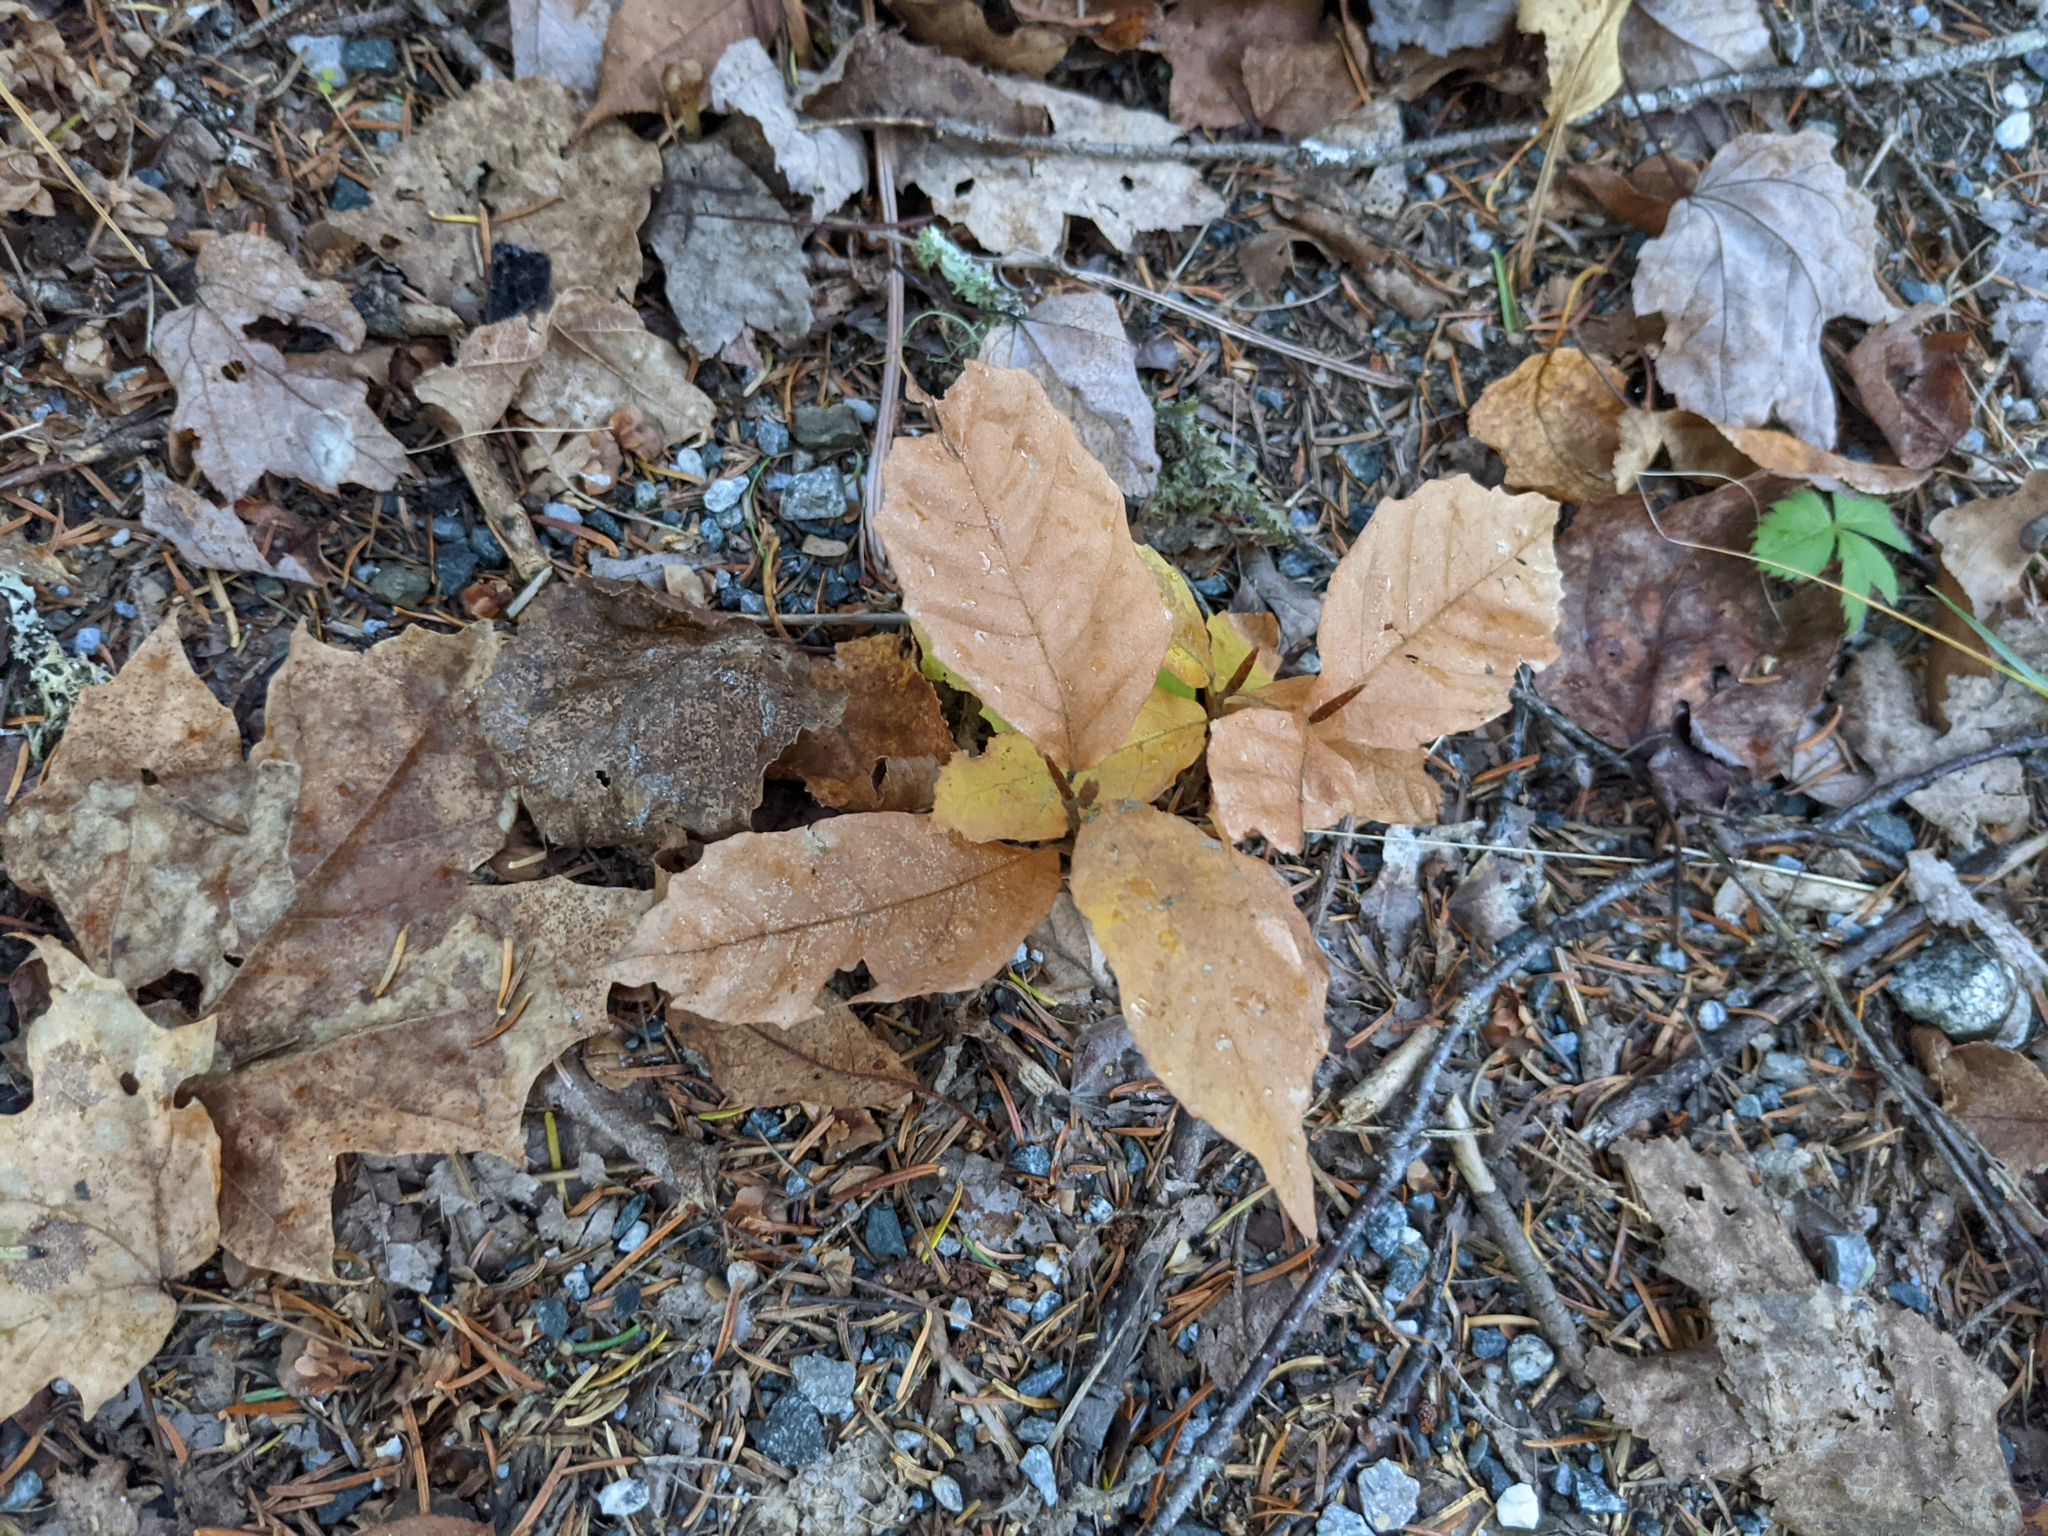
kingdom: Plantae
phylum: Tracheophyta
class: Magnoliopsida
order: Fagales
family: Fagaceae
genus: Fagus
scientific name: Fagus grandifolia
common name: American beech
